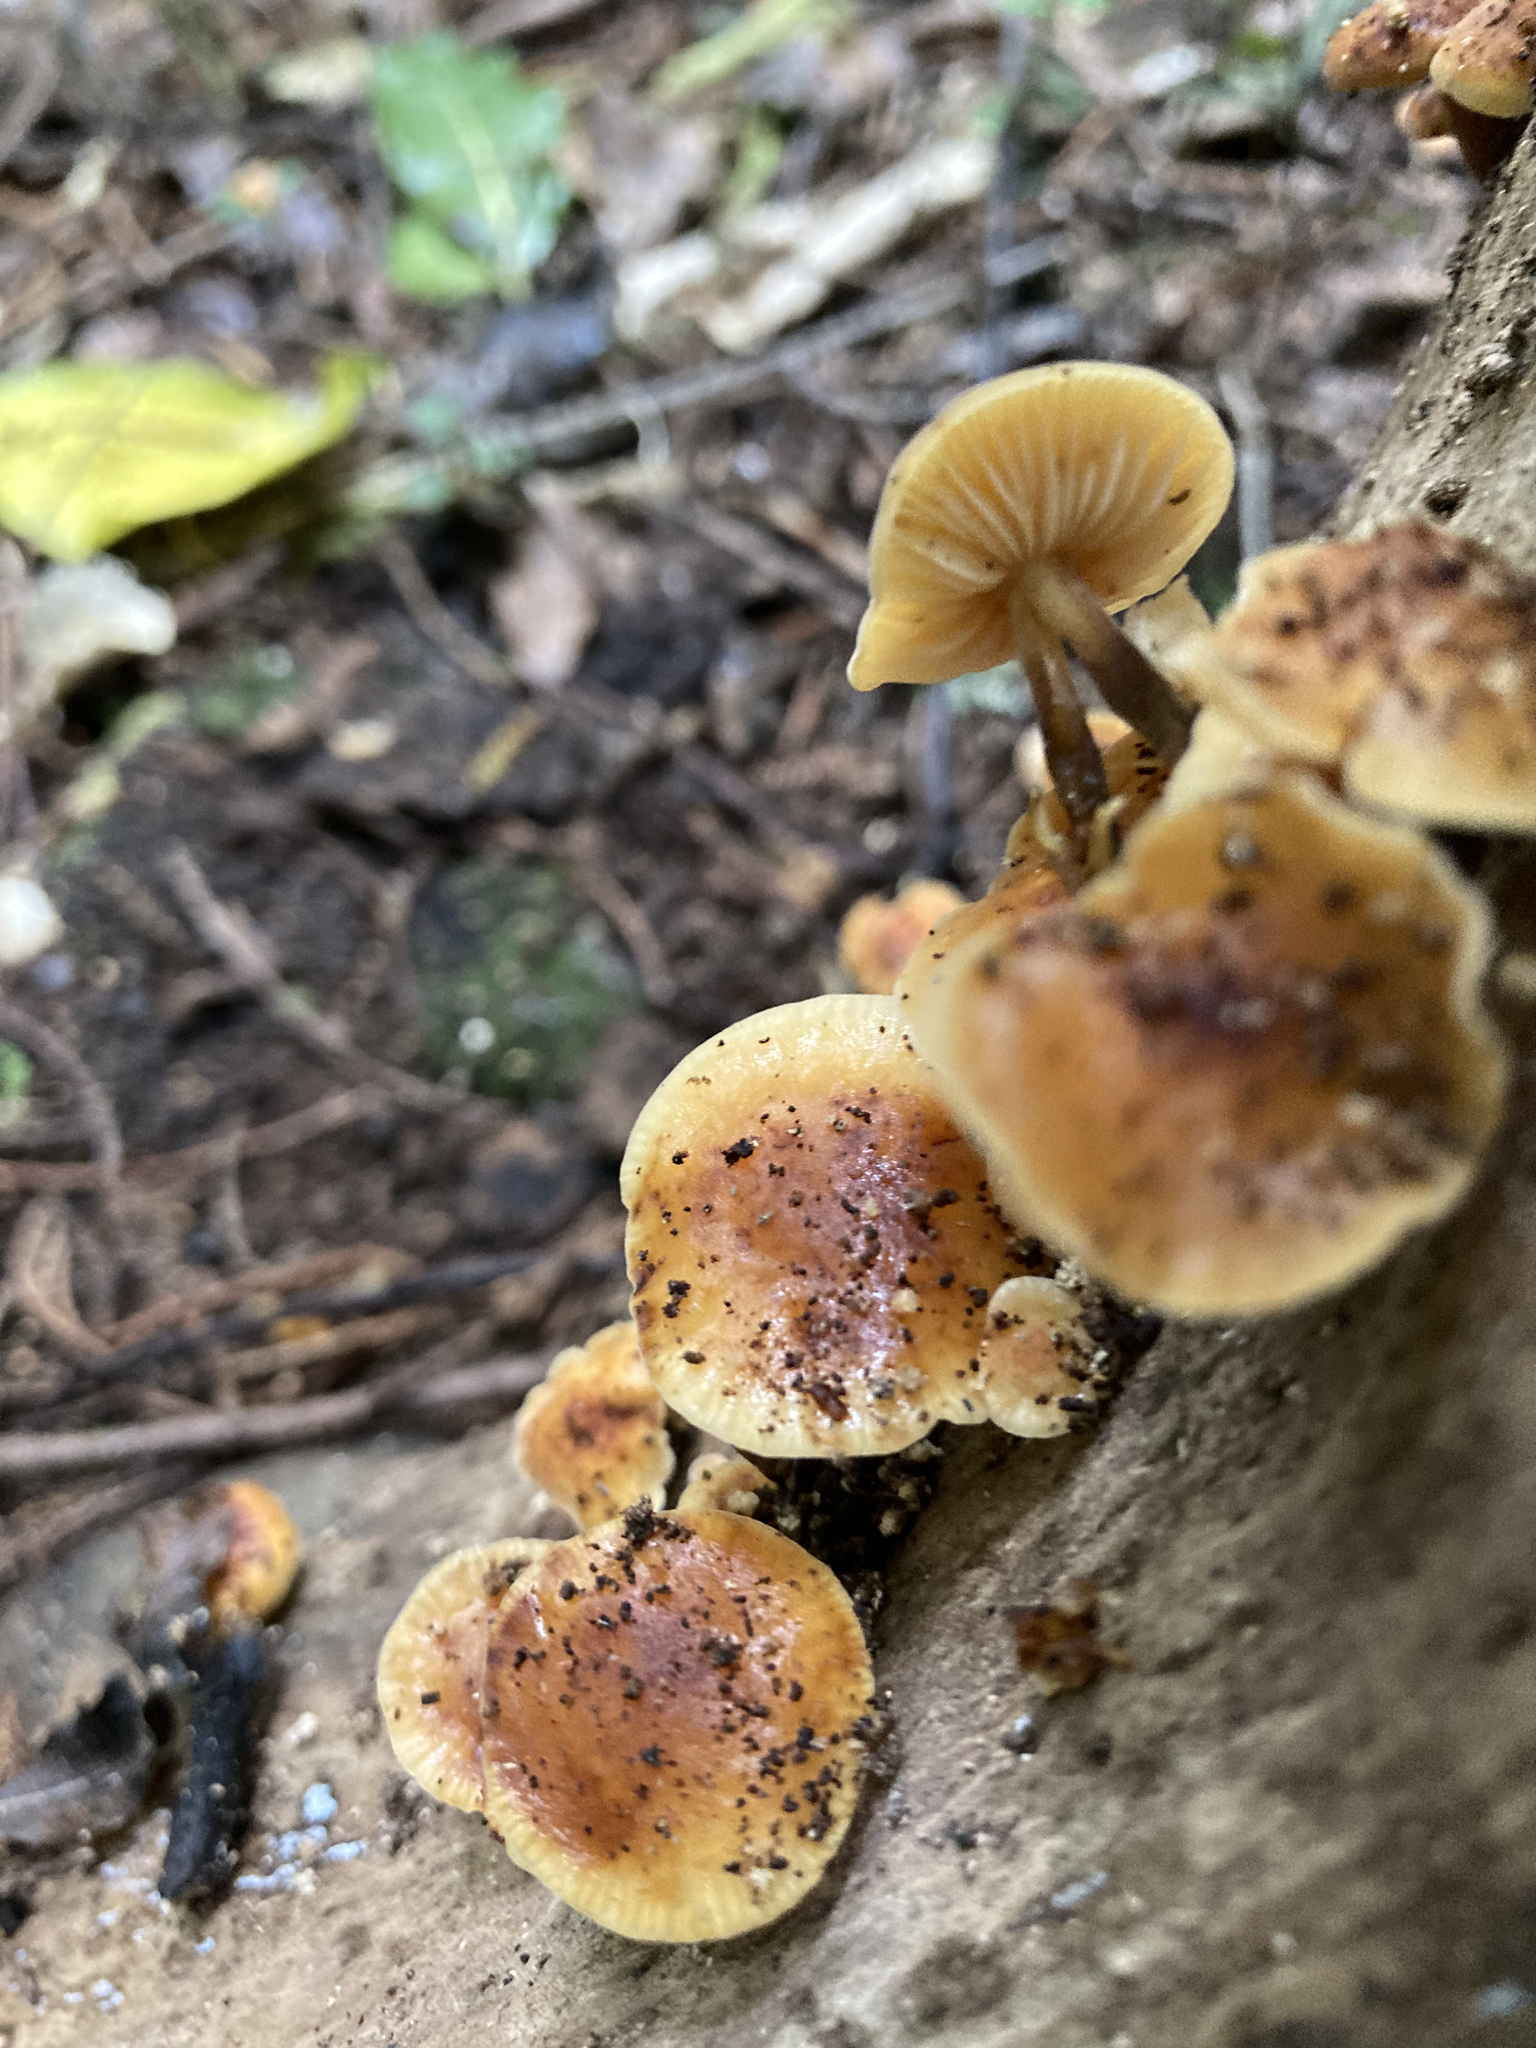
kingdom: Fungi
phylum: Basidiomycota
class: Agaricomycetes
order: Agaricales
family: Physalacriaceae
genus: Flammulina
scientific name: Flammulina velutipes
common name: Velvet shank
